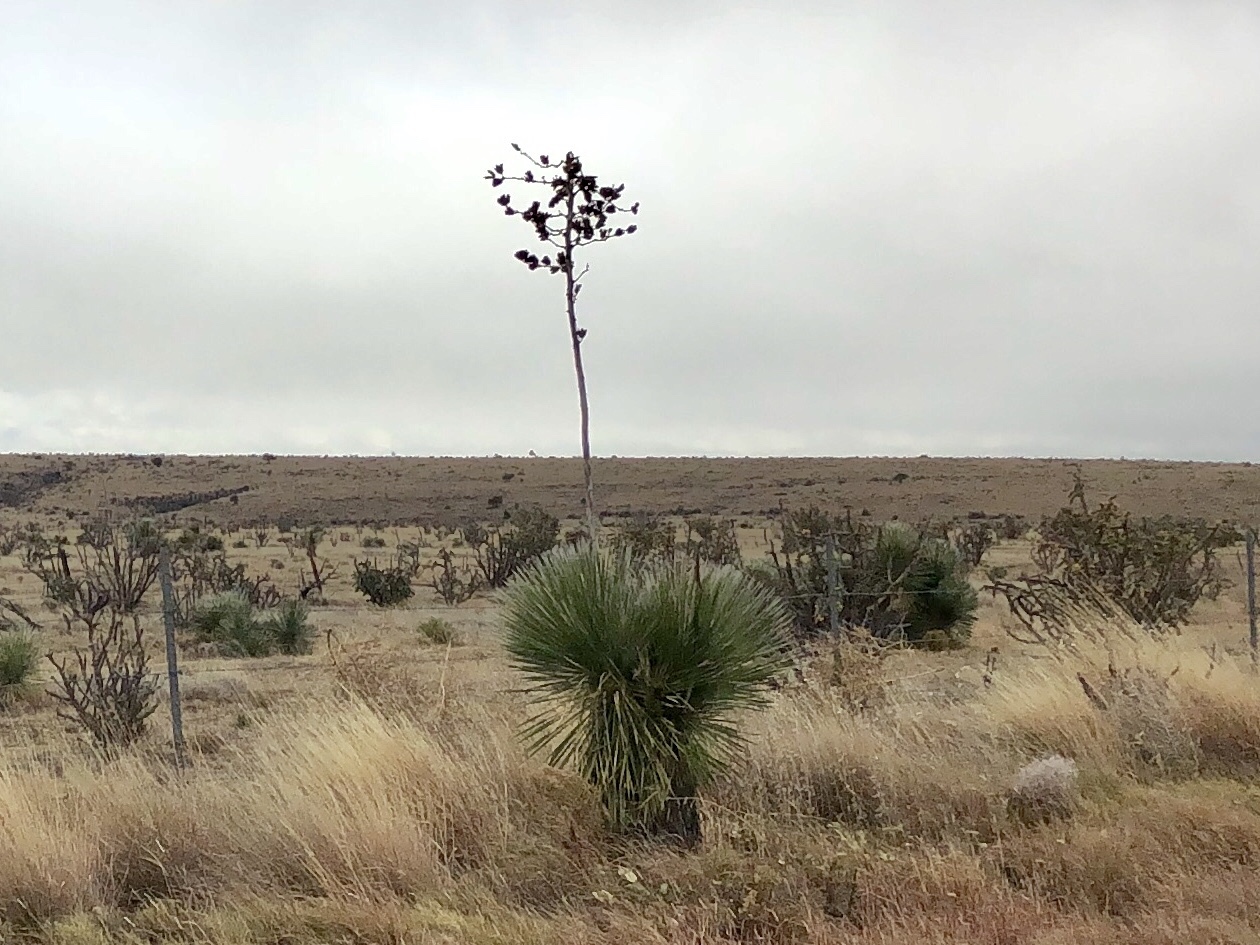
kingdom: Plantae
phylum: Tracheophyta
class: Liliopsida
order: Asparagales
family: Asparagaceae
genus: Yucca
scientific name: Yucca elata
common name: Palmella
